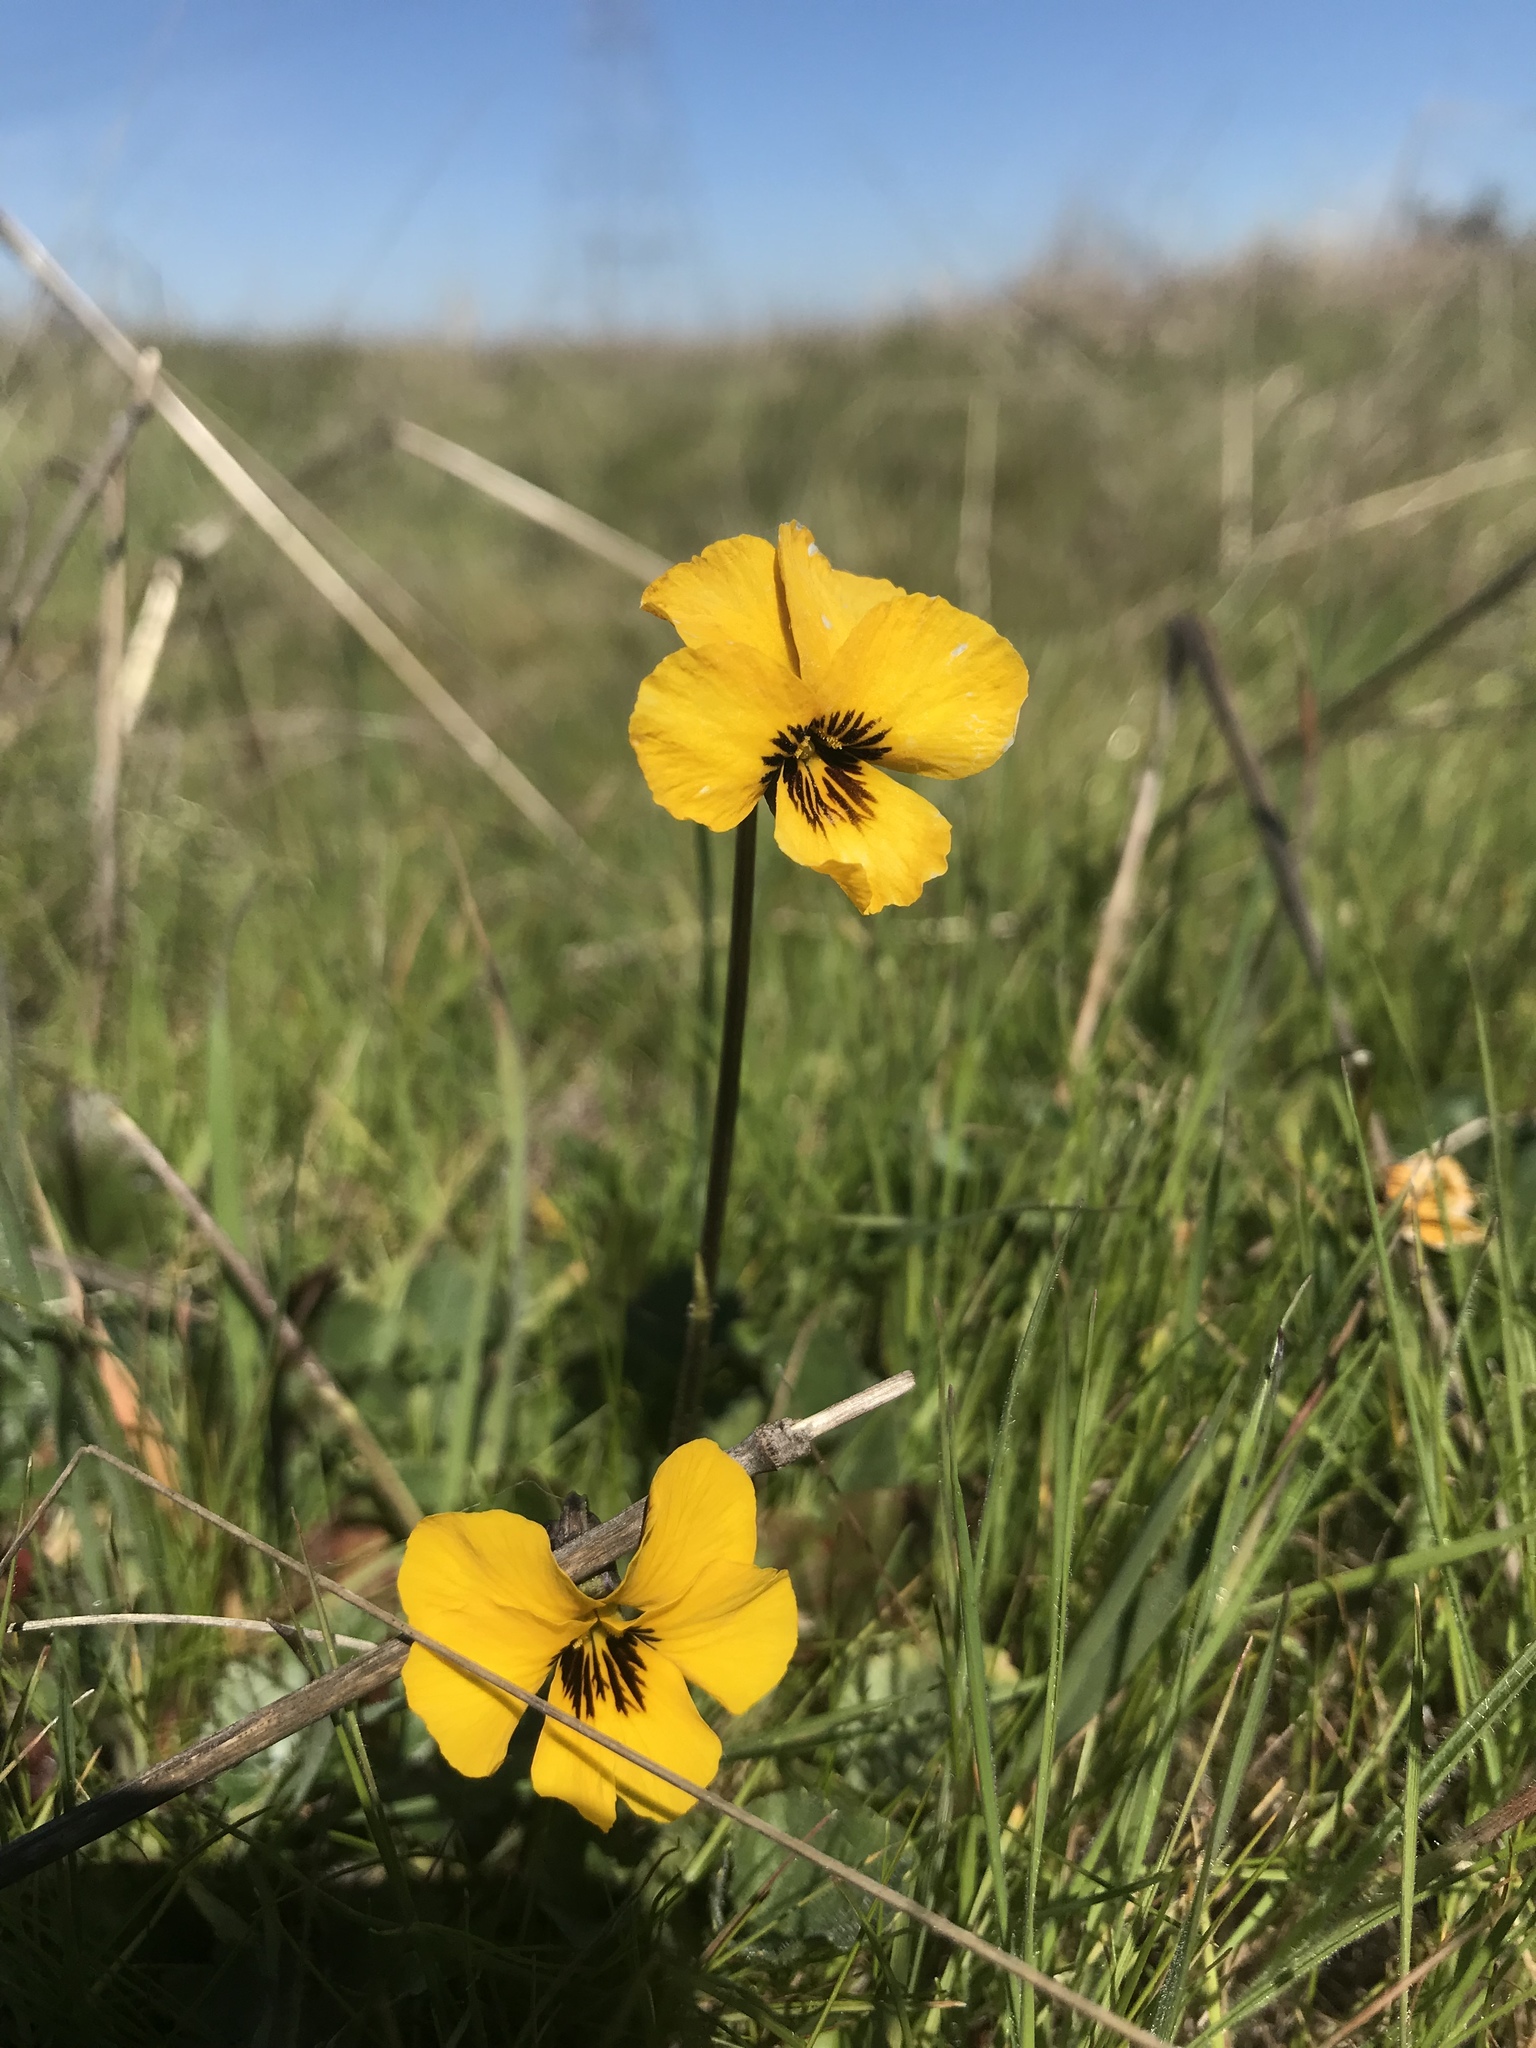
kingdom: Plantae
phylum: Tracheophyta
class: Magnoliopsida
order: Malpighiales
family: Violaceae
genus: Viola
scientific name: Viola pedunculata
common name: California golden violet
